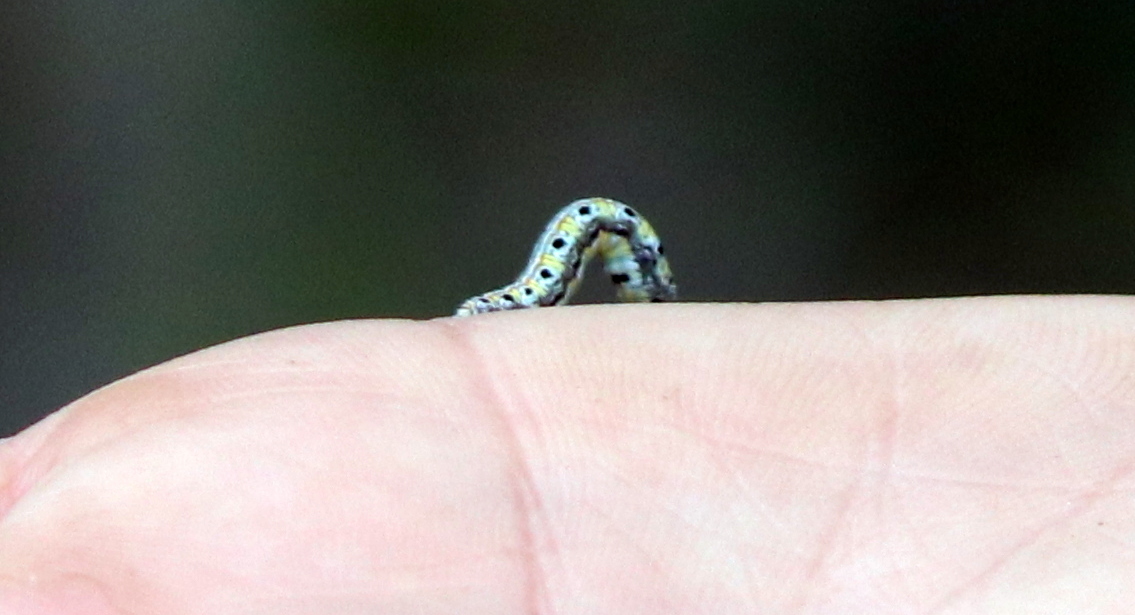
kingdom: Animalia
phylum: Arthropoda
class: Insecta
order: Lepidoptera
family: Geometridae
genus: Episemasia
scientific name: Episemasia solitaria
